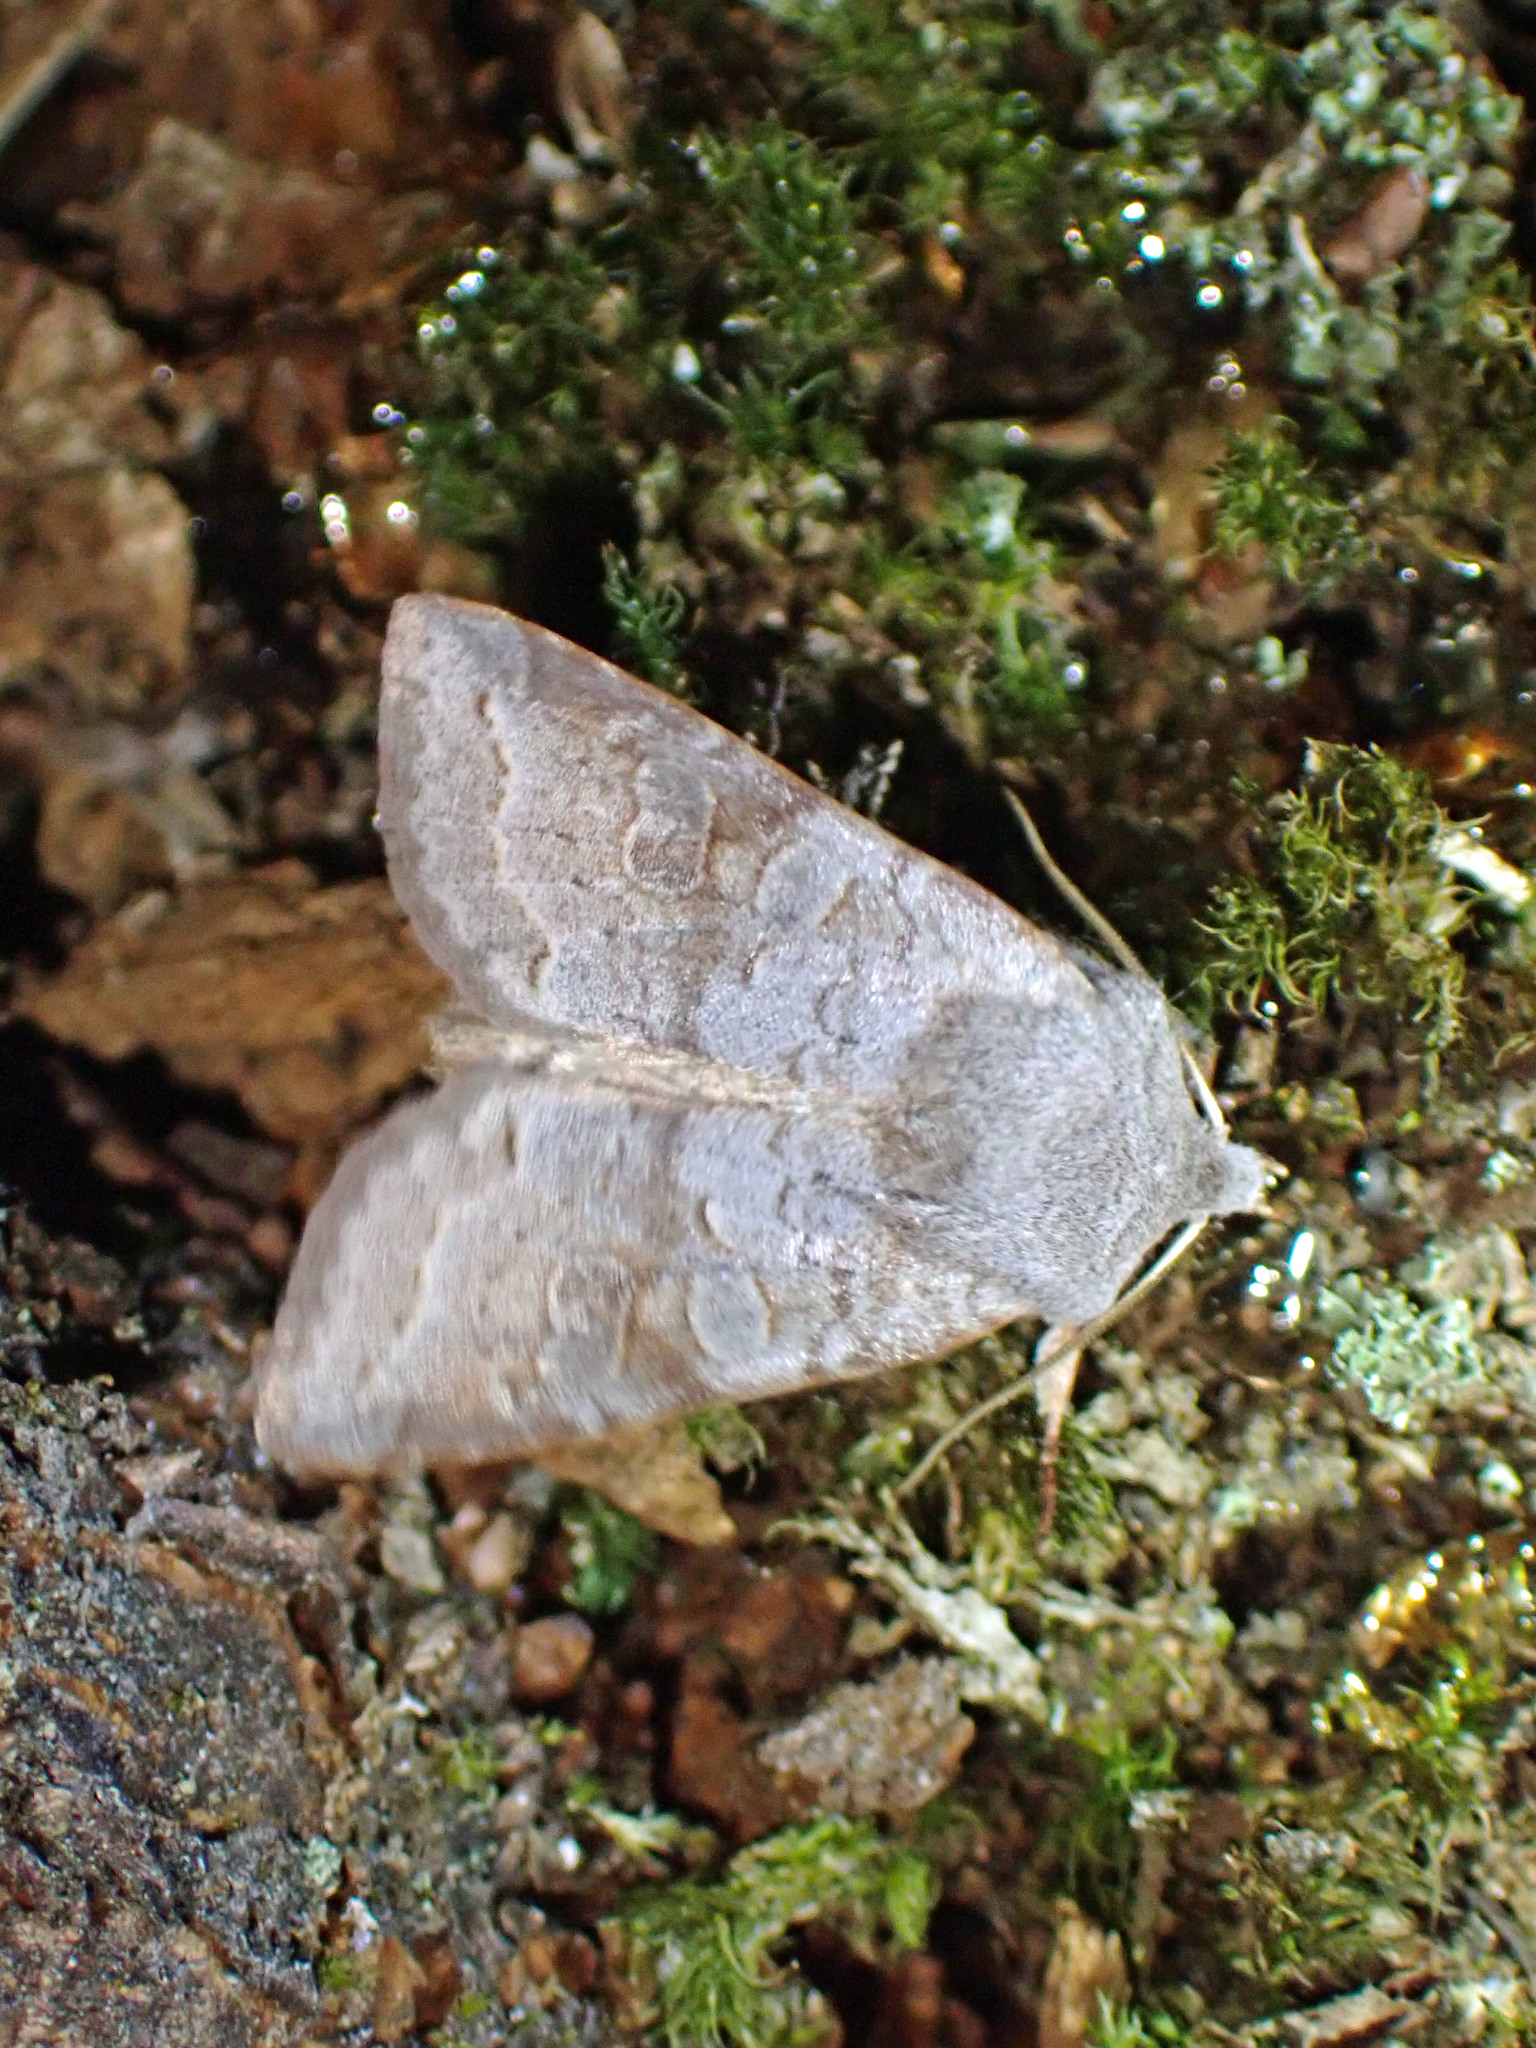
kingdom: Animalia
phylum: Arthropoda
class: Insecta
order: Lepidoptera
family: Noctuidae
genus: Orthosia
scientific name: Orthosia revicta
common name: Rusty whitesided caterpillar
